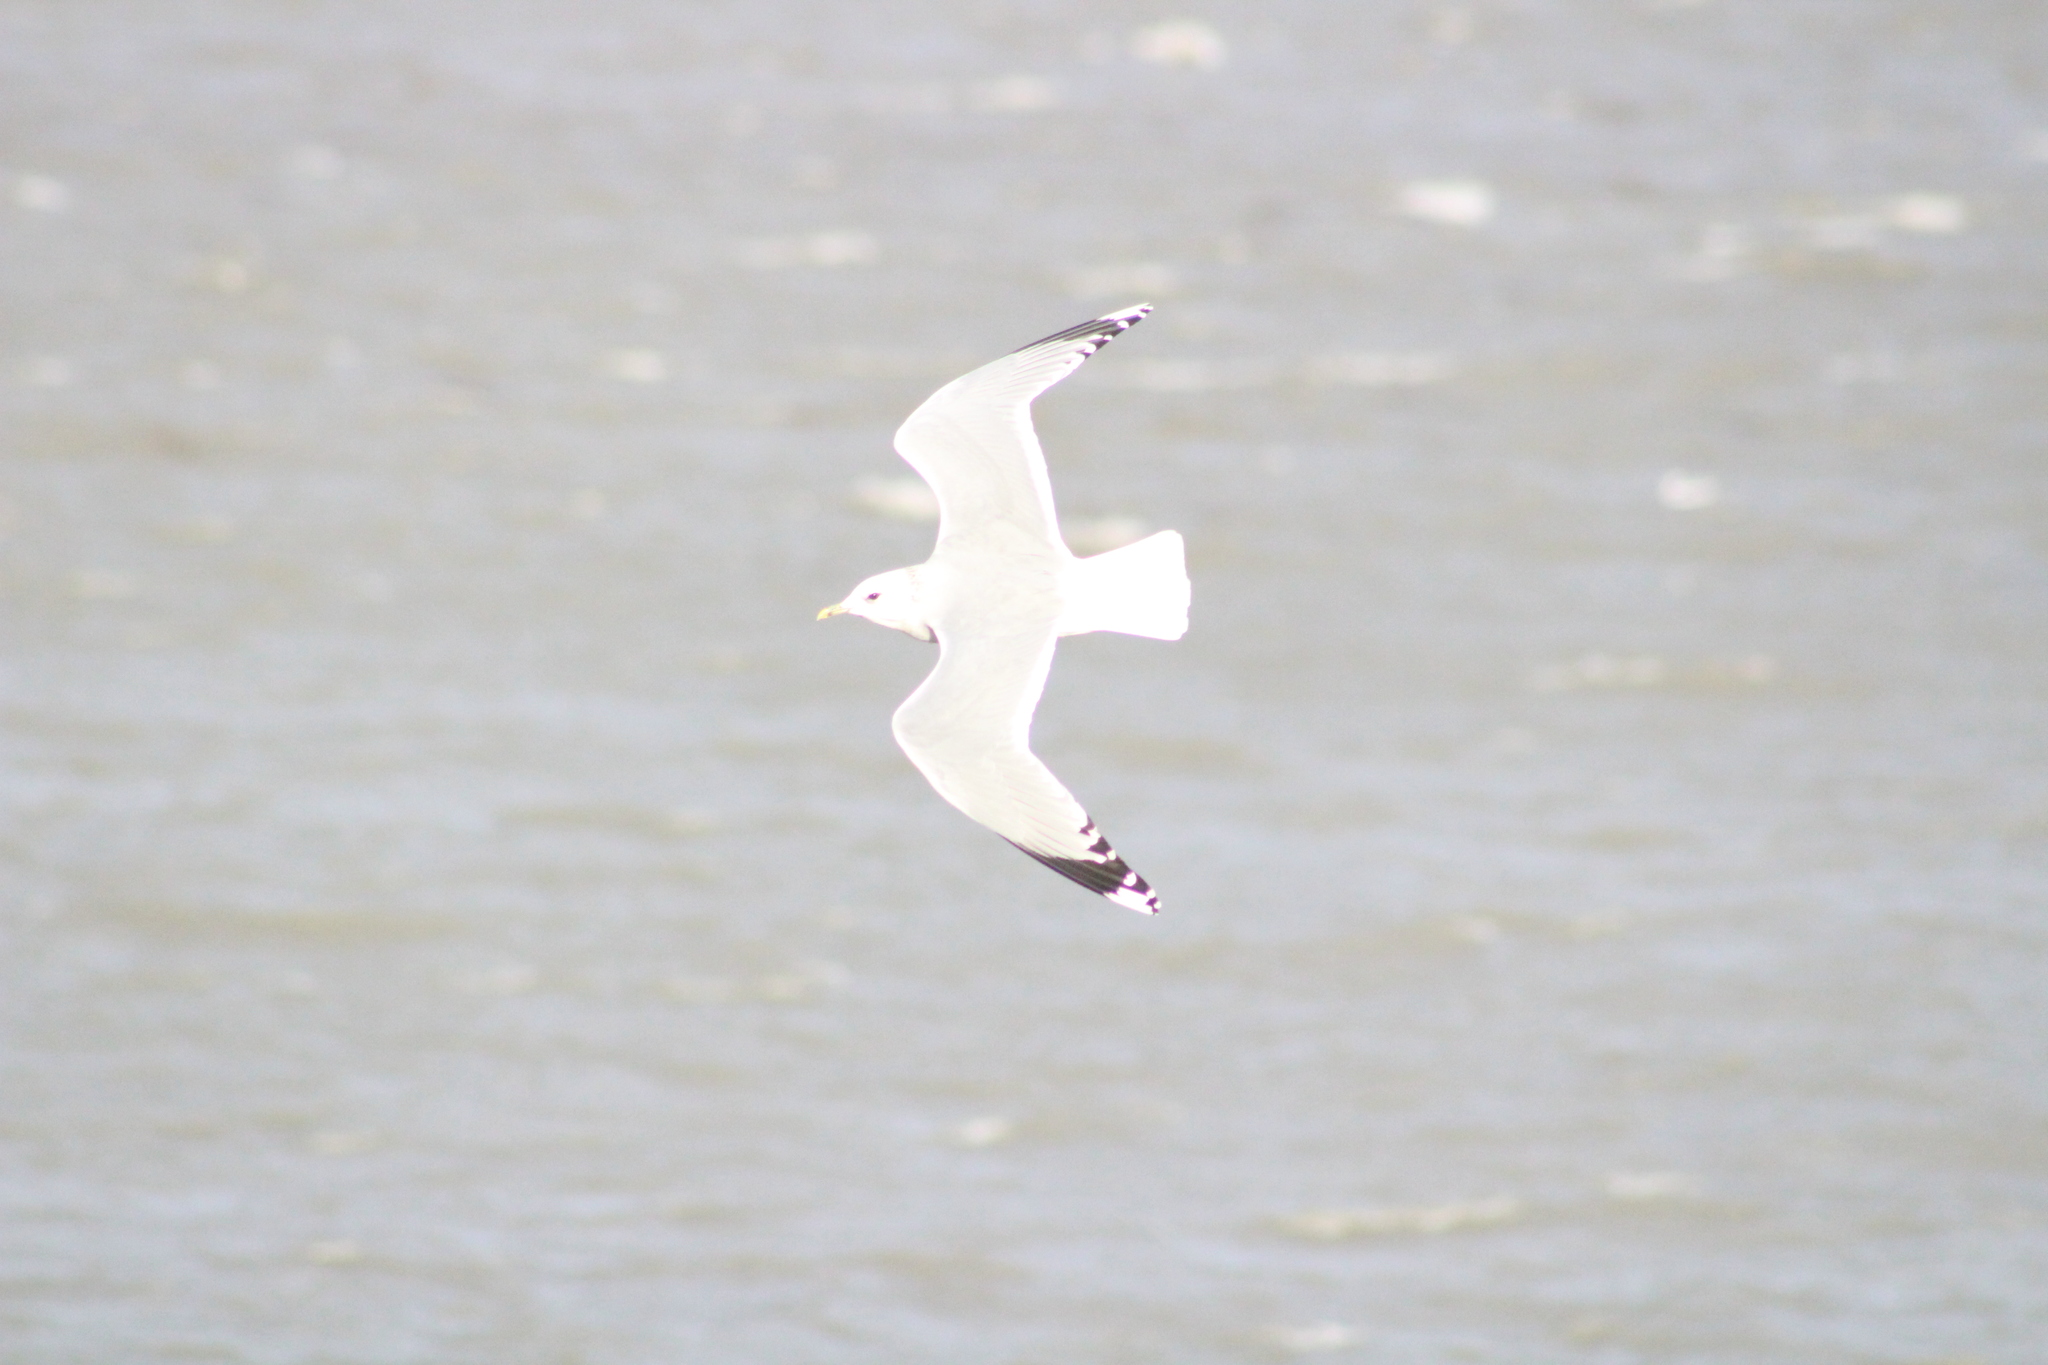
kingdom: Animalia
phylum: Chordata
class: Aves
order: Charadriiformes
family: Laridae
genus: Larus
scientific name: Larus canus
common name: Mew gull
